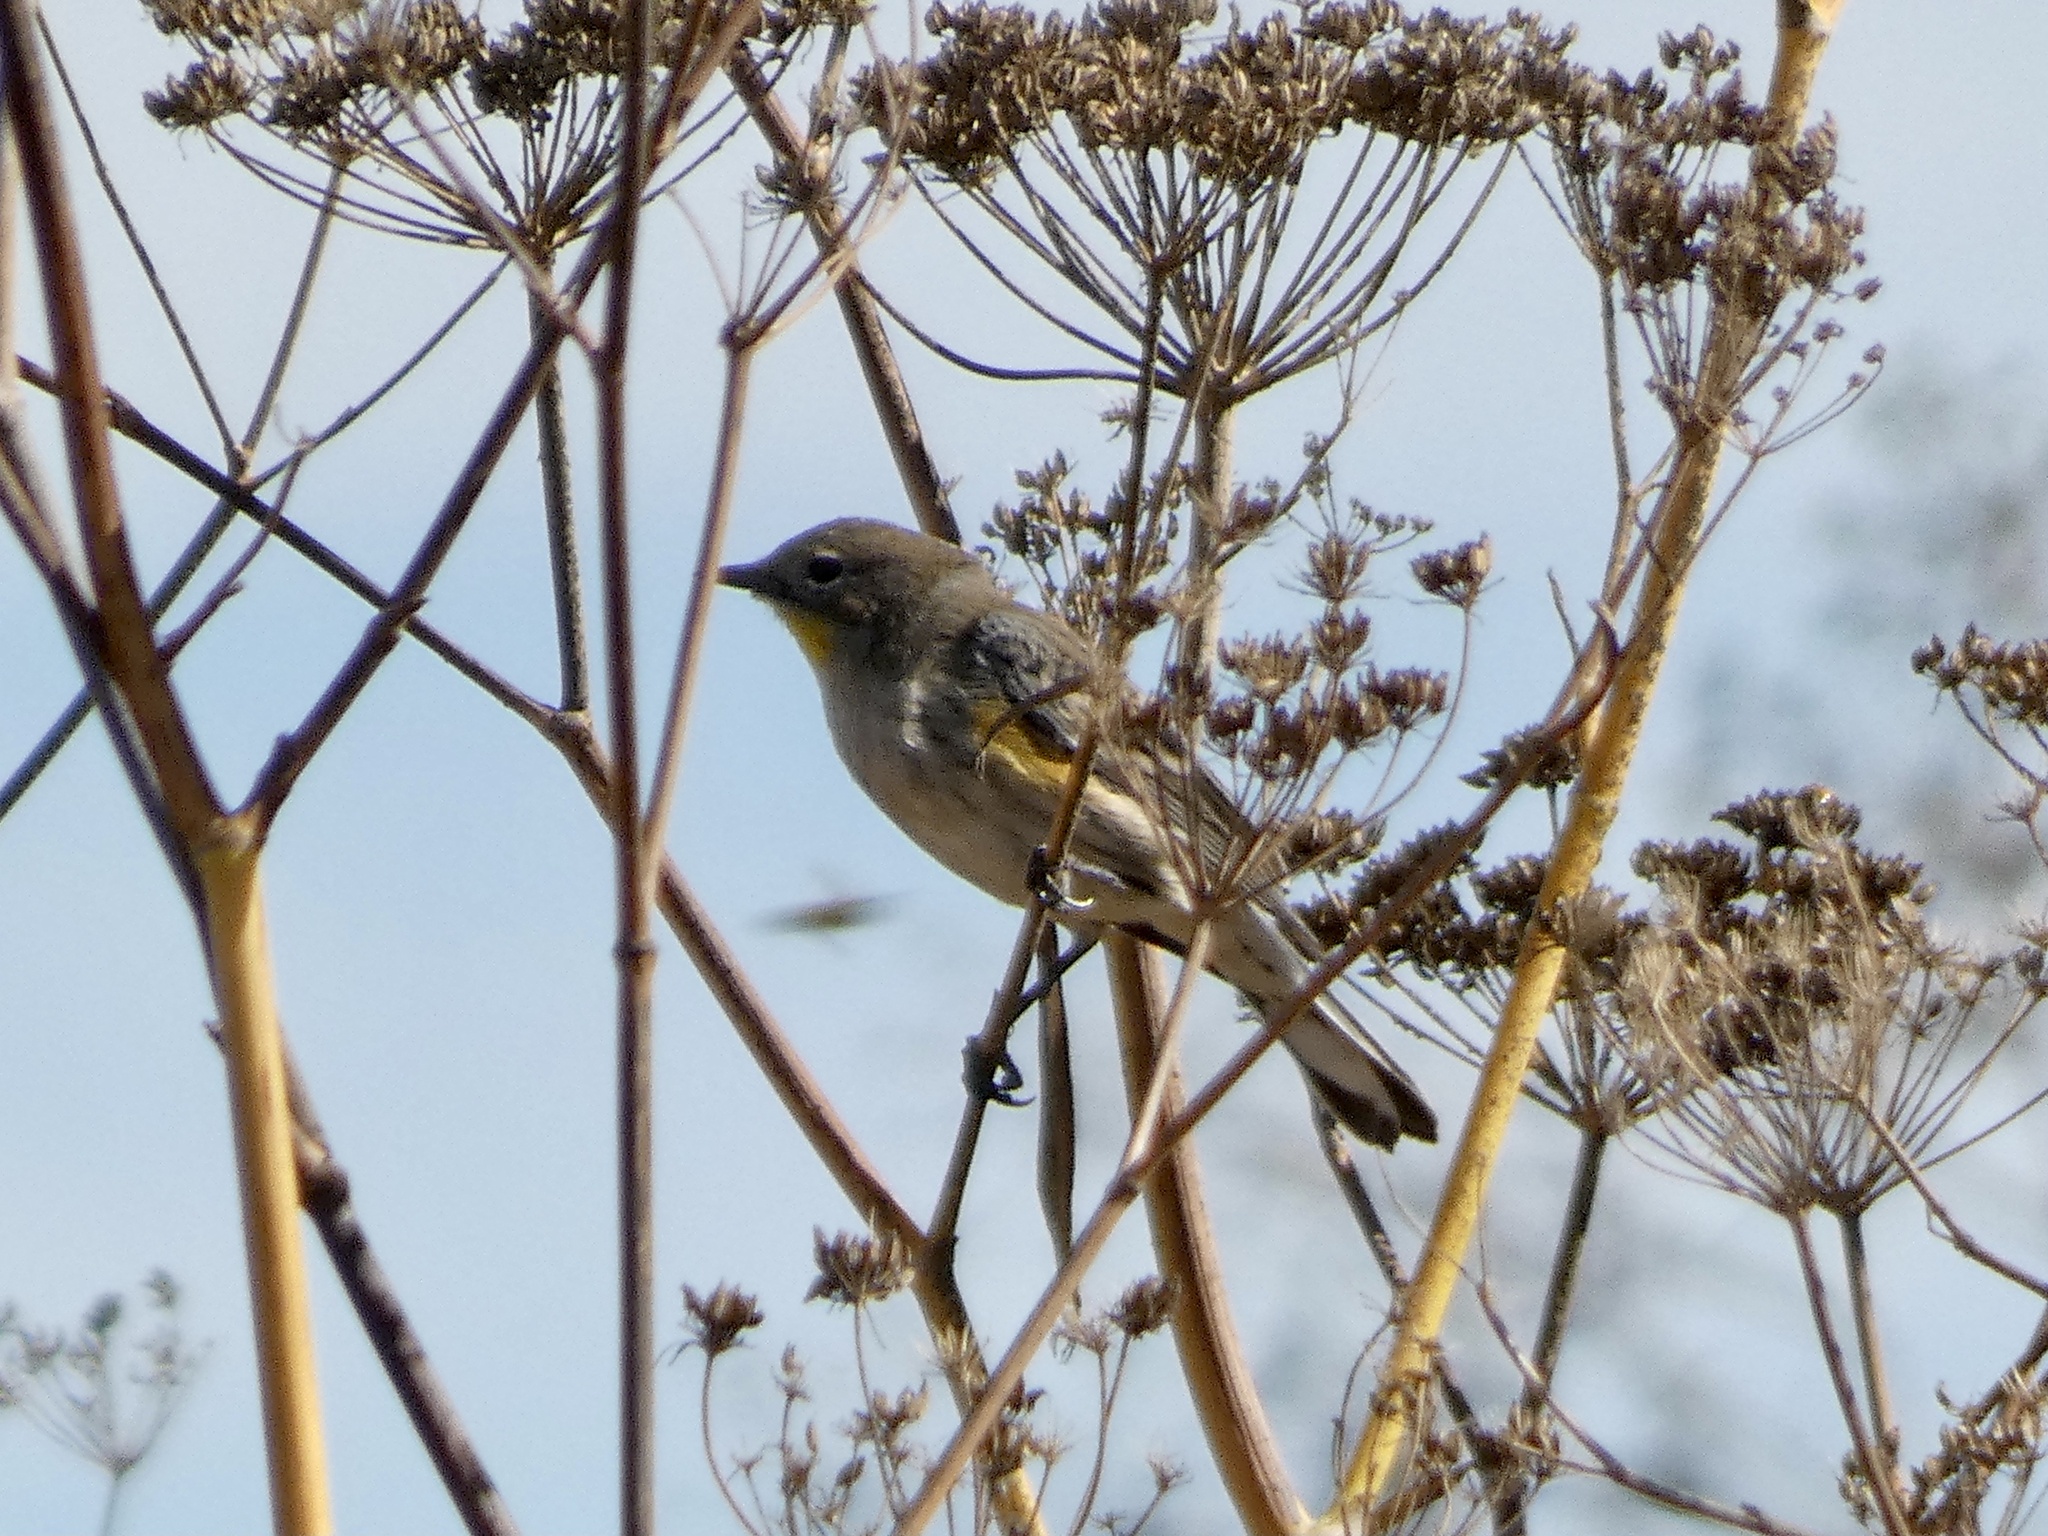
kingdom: Animalia
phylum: Chordata
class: Aves
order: Passeriformes
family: Parulidae
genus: Setophaga
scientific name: Setophaga coronata
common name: Myrtle warbler
